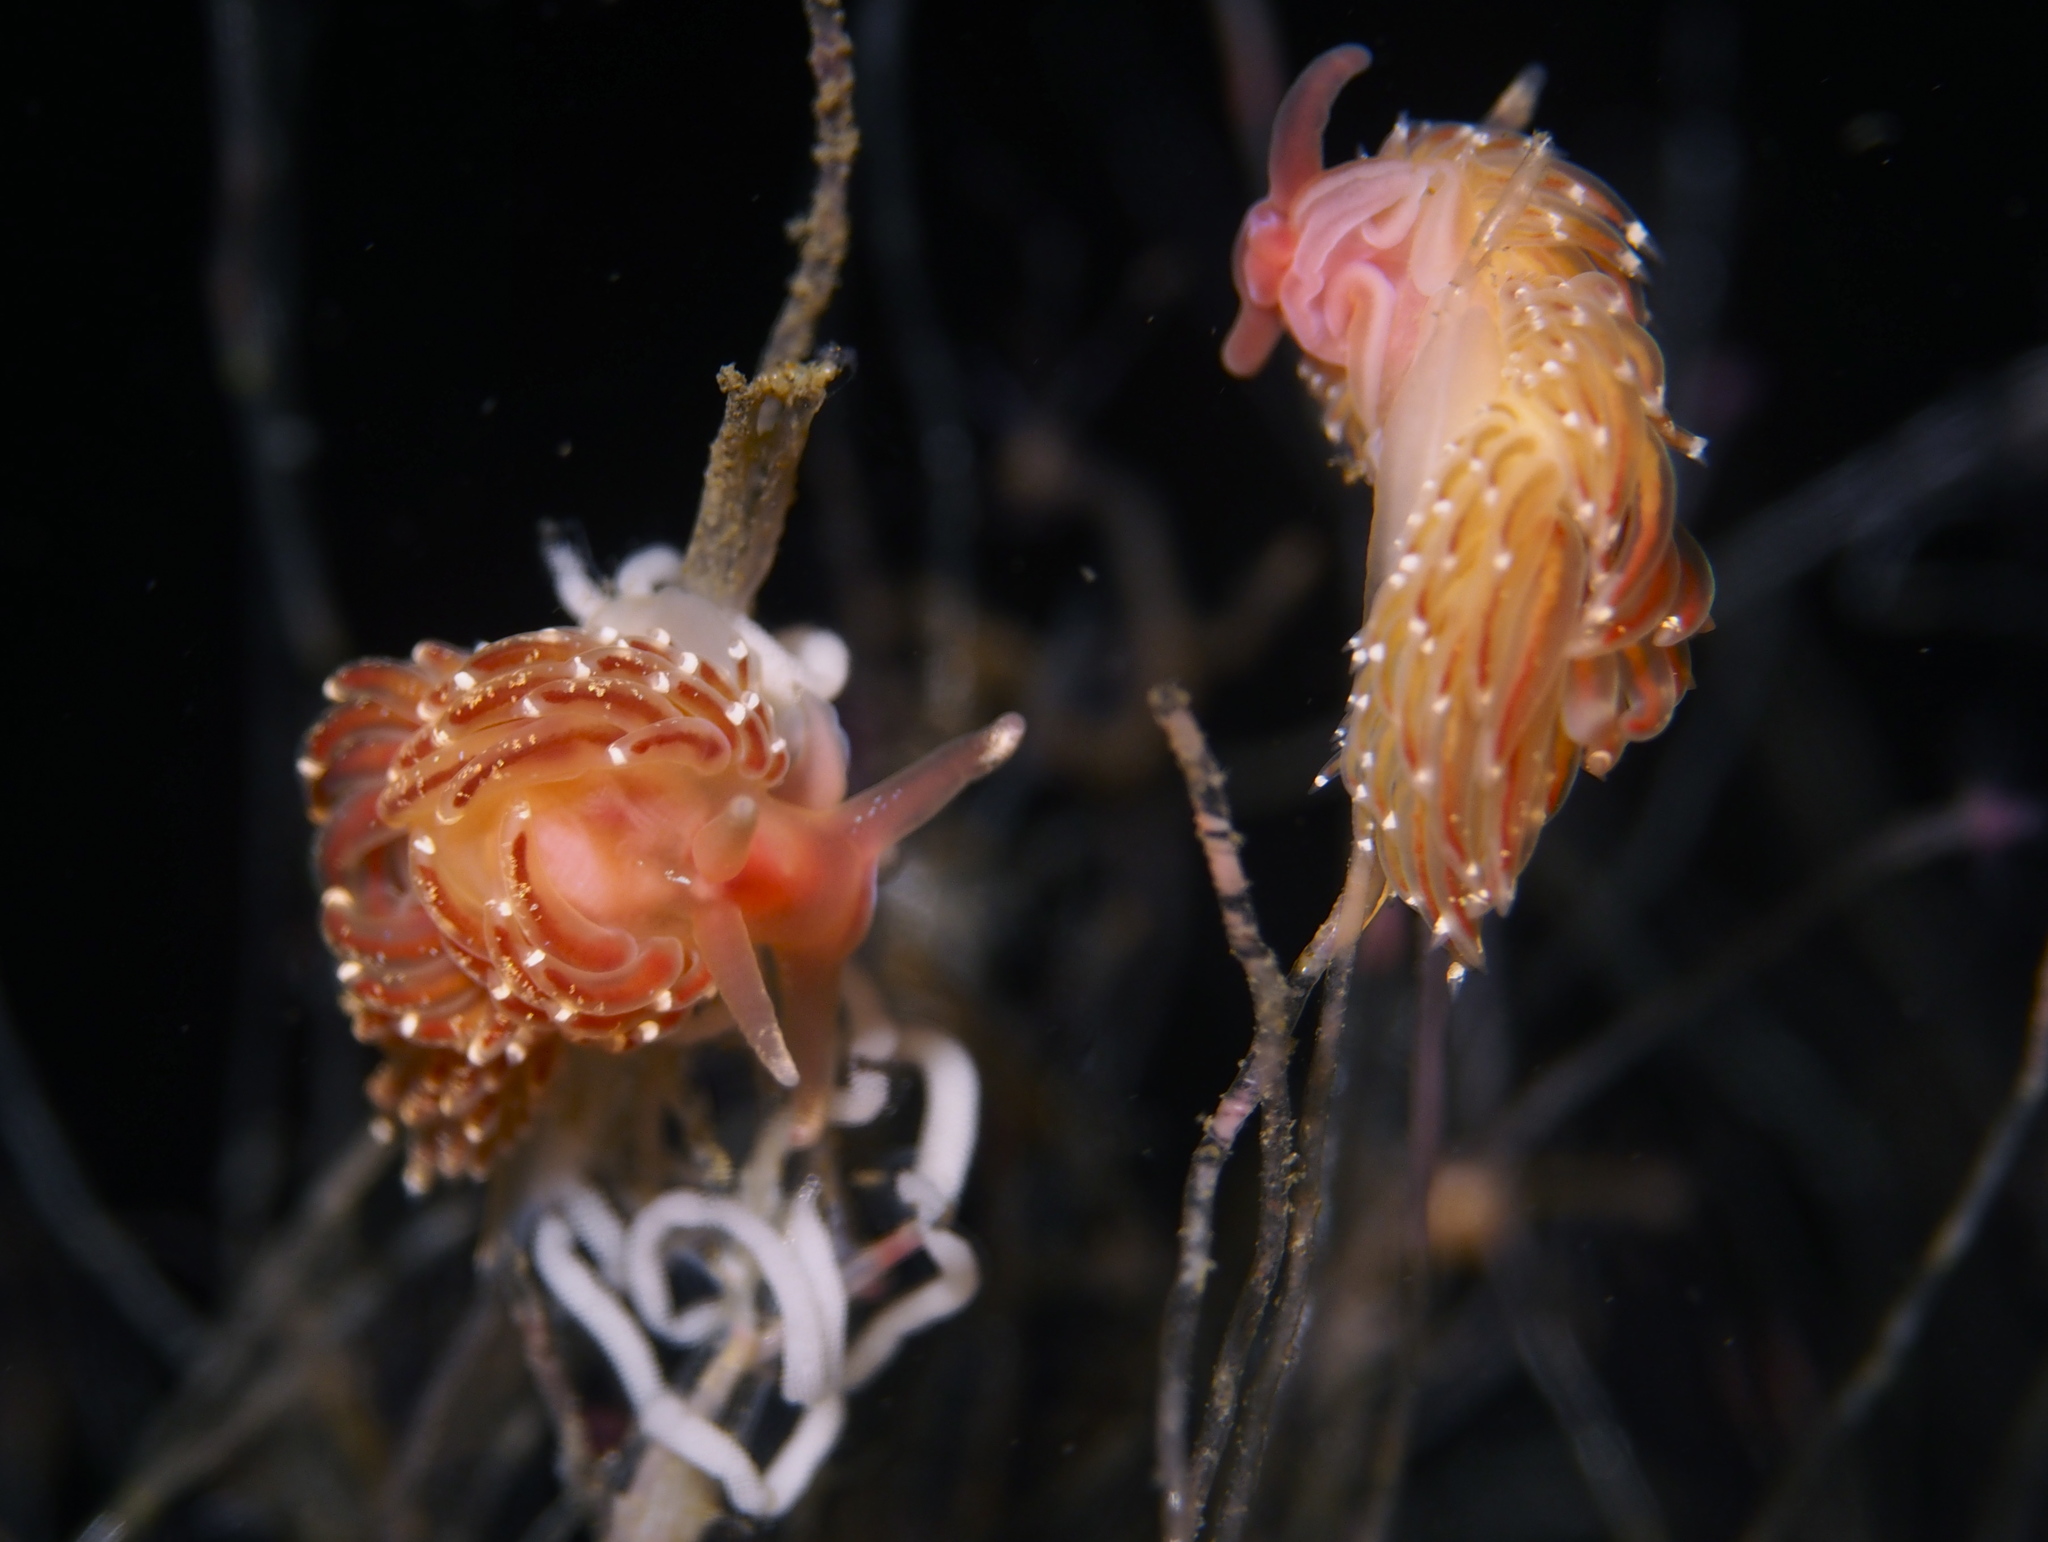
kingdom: Animalia
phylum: Mollusca
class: Gastropoda
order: Nudibranchia
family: Facelinidae
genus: Facelina
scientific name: Facelina bostoniensis
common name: Boston facelina
